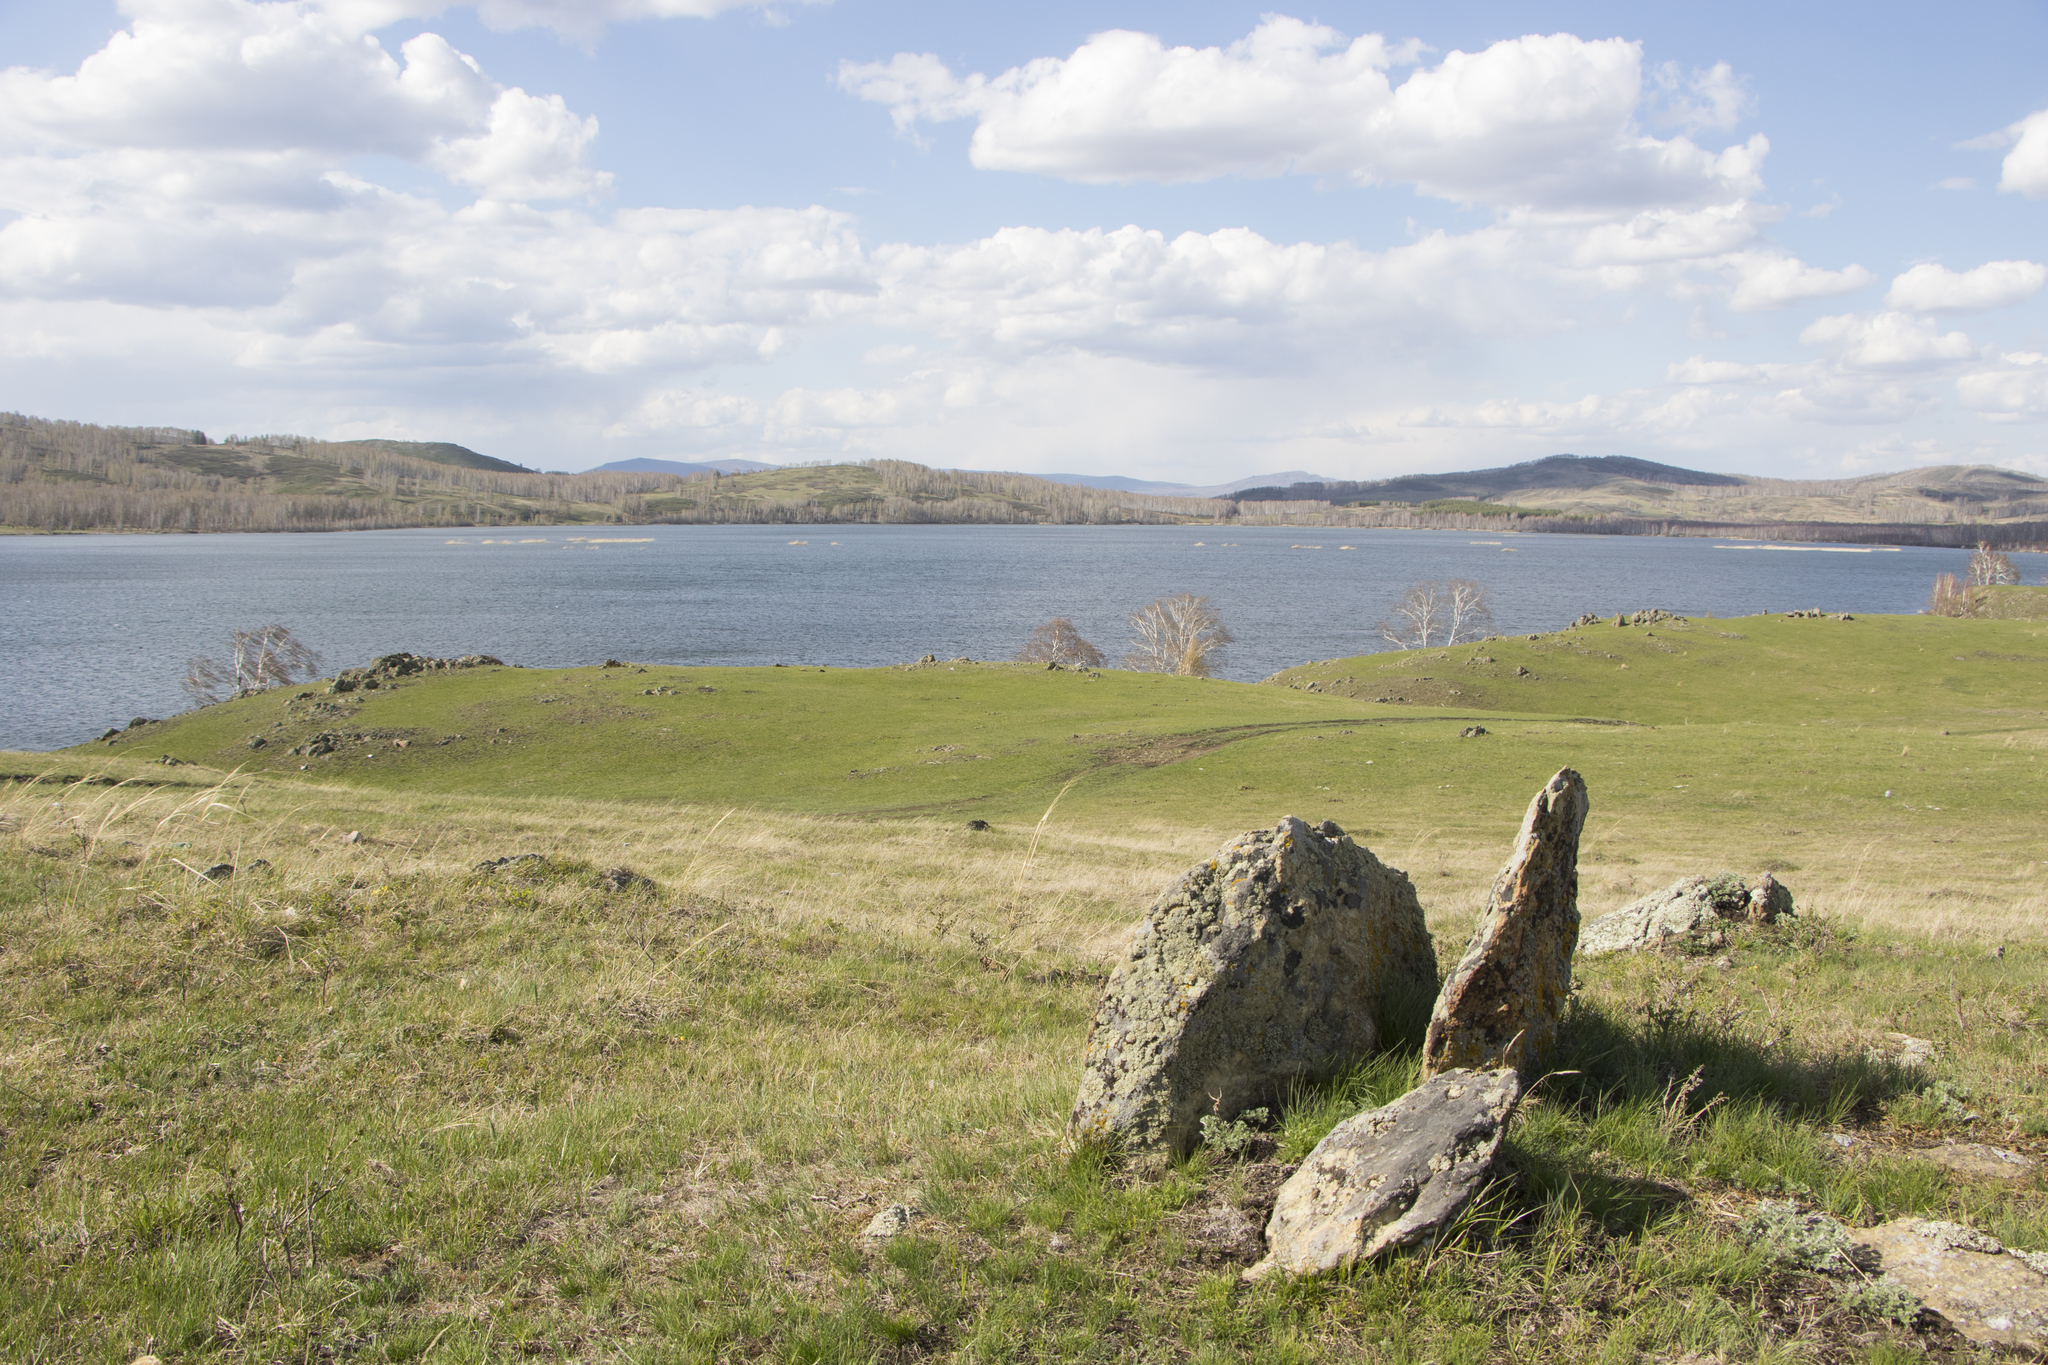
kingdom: Animalia
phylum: Chordata
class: Aves
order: Accipitriformes
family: Accipitridae
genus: Aquila
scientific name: Aquila heliaca
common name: Eastern imperial eagle
